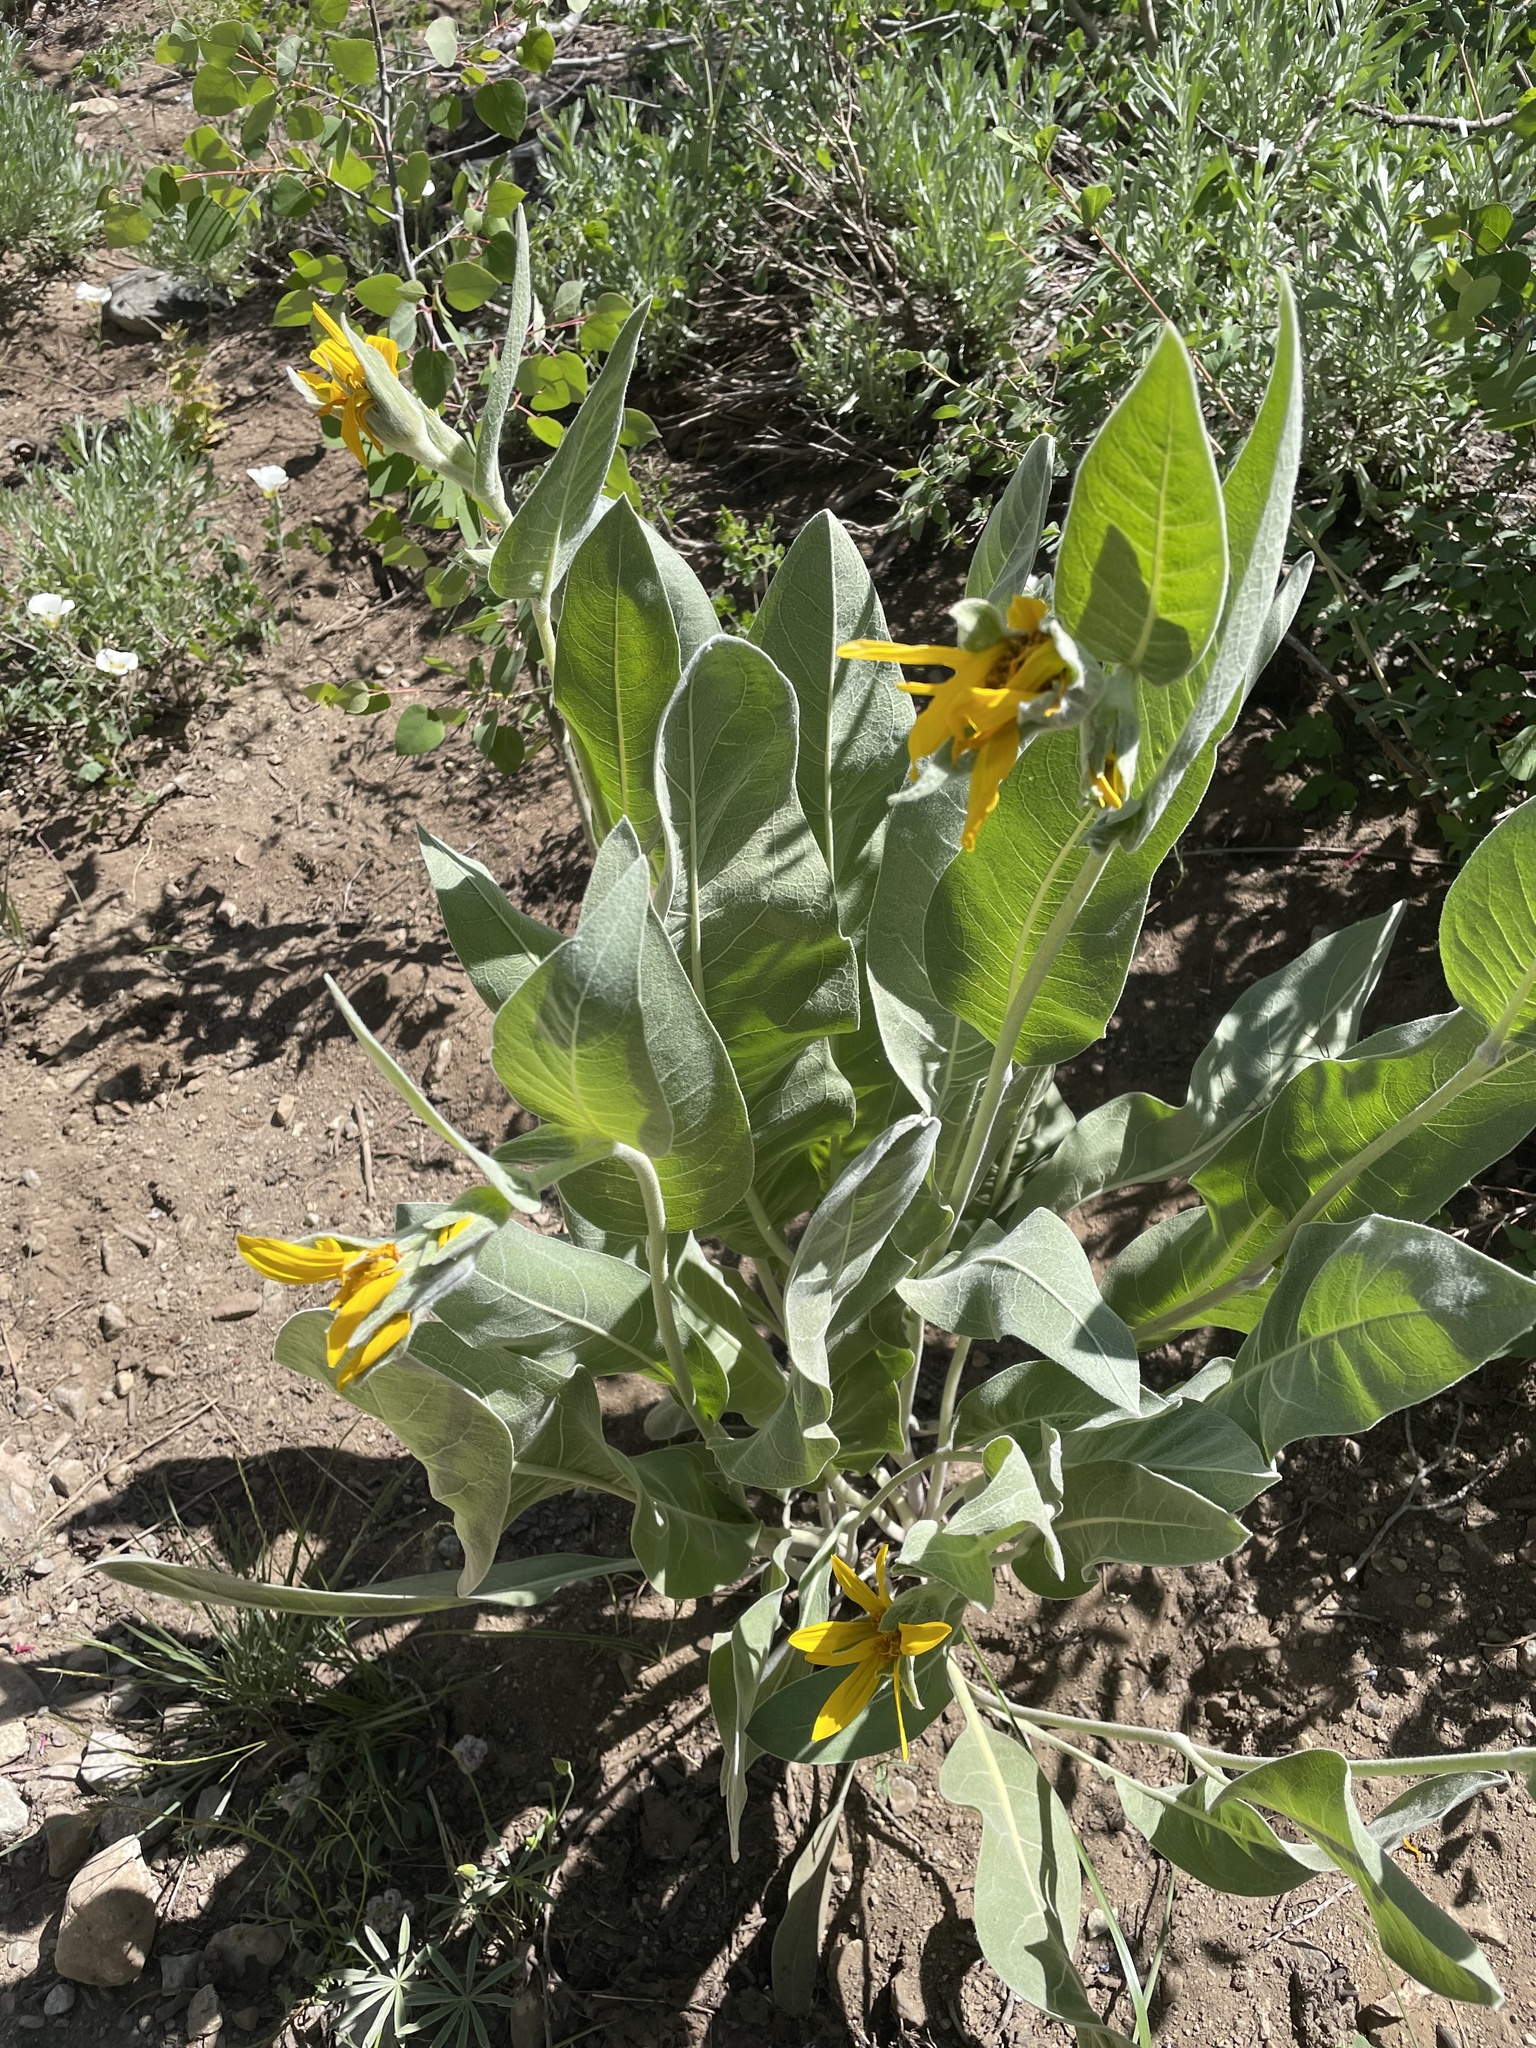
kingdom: Plantae
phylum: Tracheophyta
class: Magnoliopsida
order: Asterales
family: Asteraceae
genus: Wyethia
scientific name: Wyethia mollis
